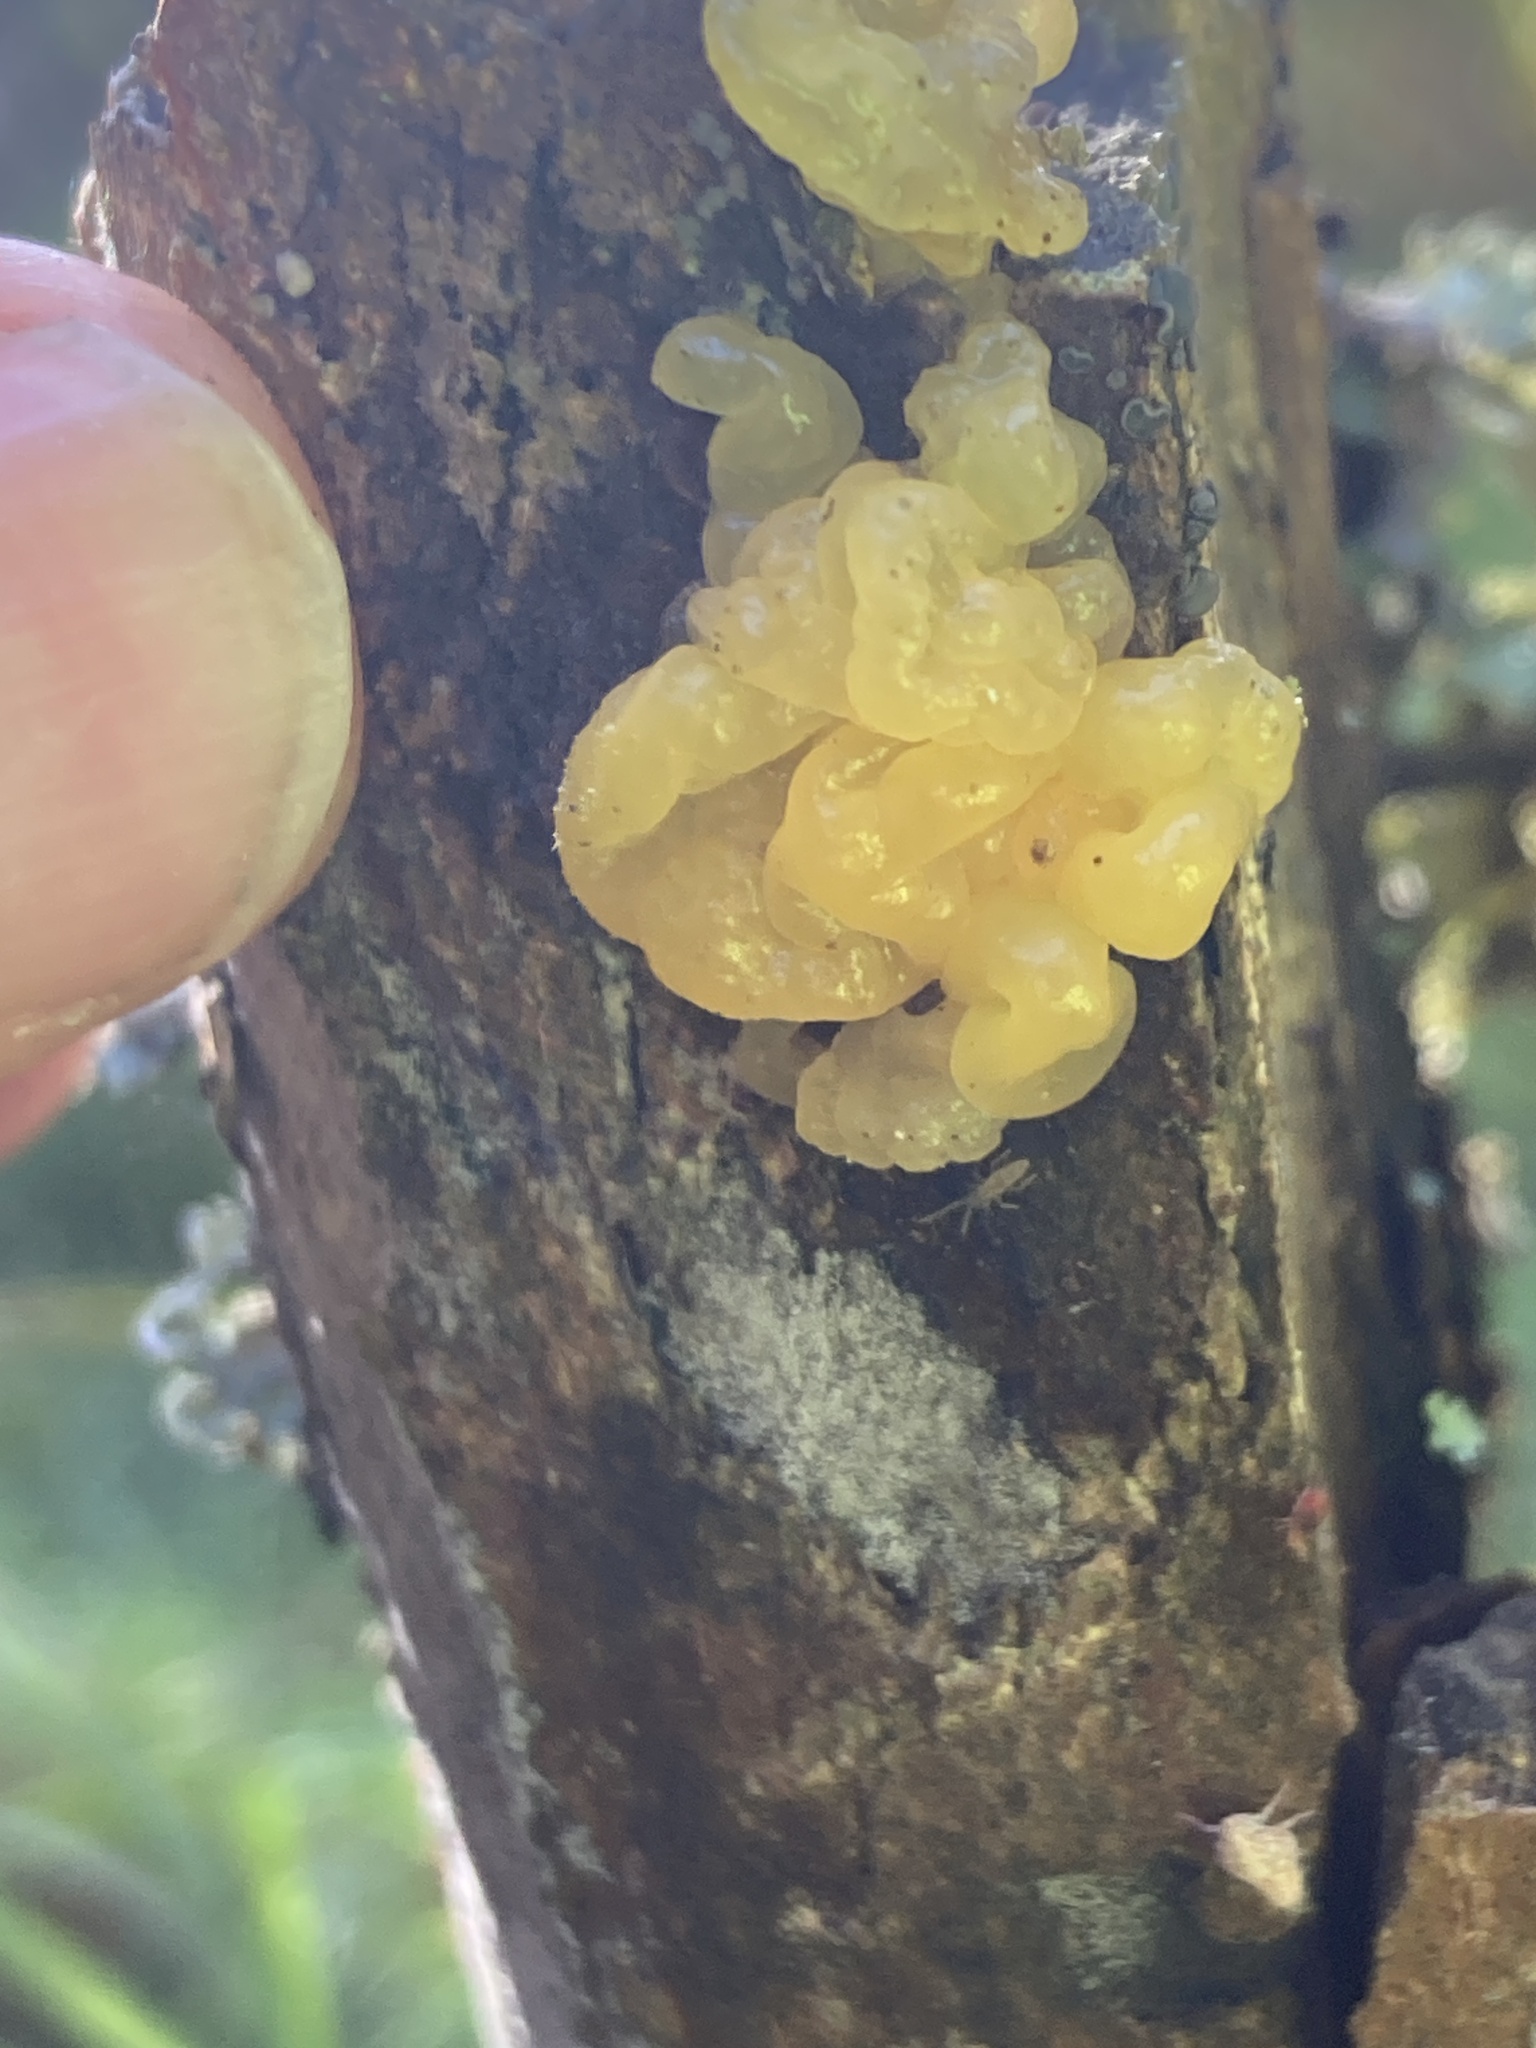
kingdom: Fungi
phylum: Basidiomycota
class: Tremellomycetes
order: Tremellales
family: Tremellaceae
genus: Tremella
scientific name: Tremella mesenterica
